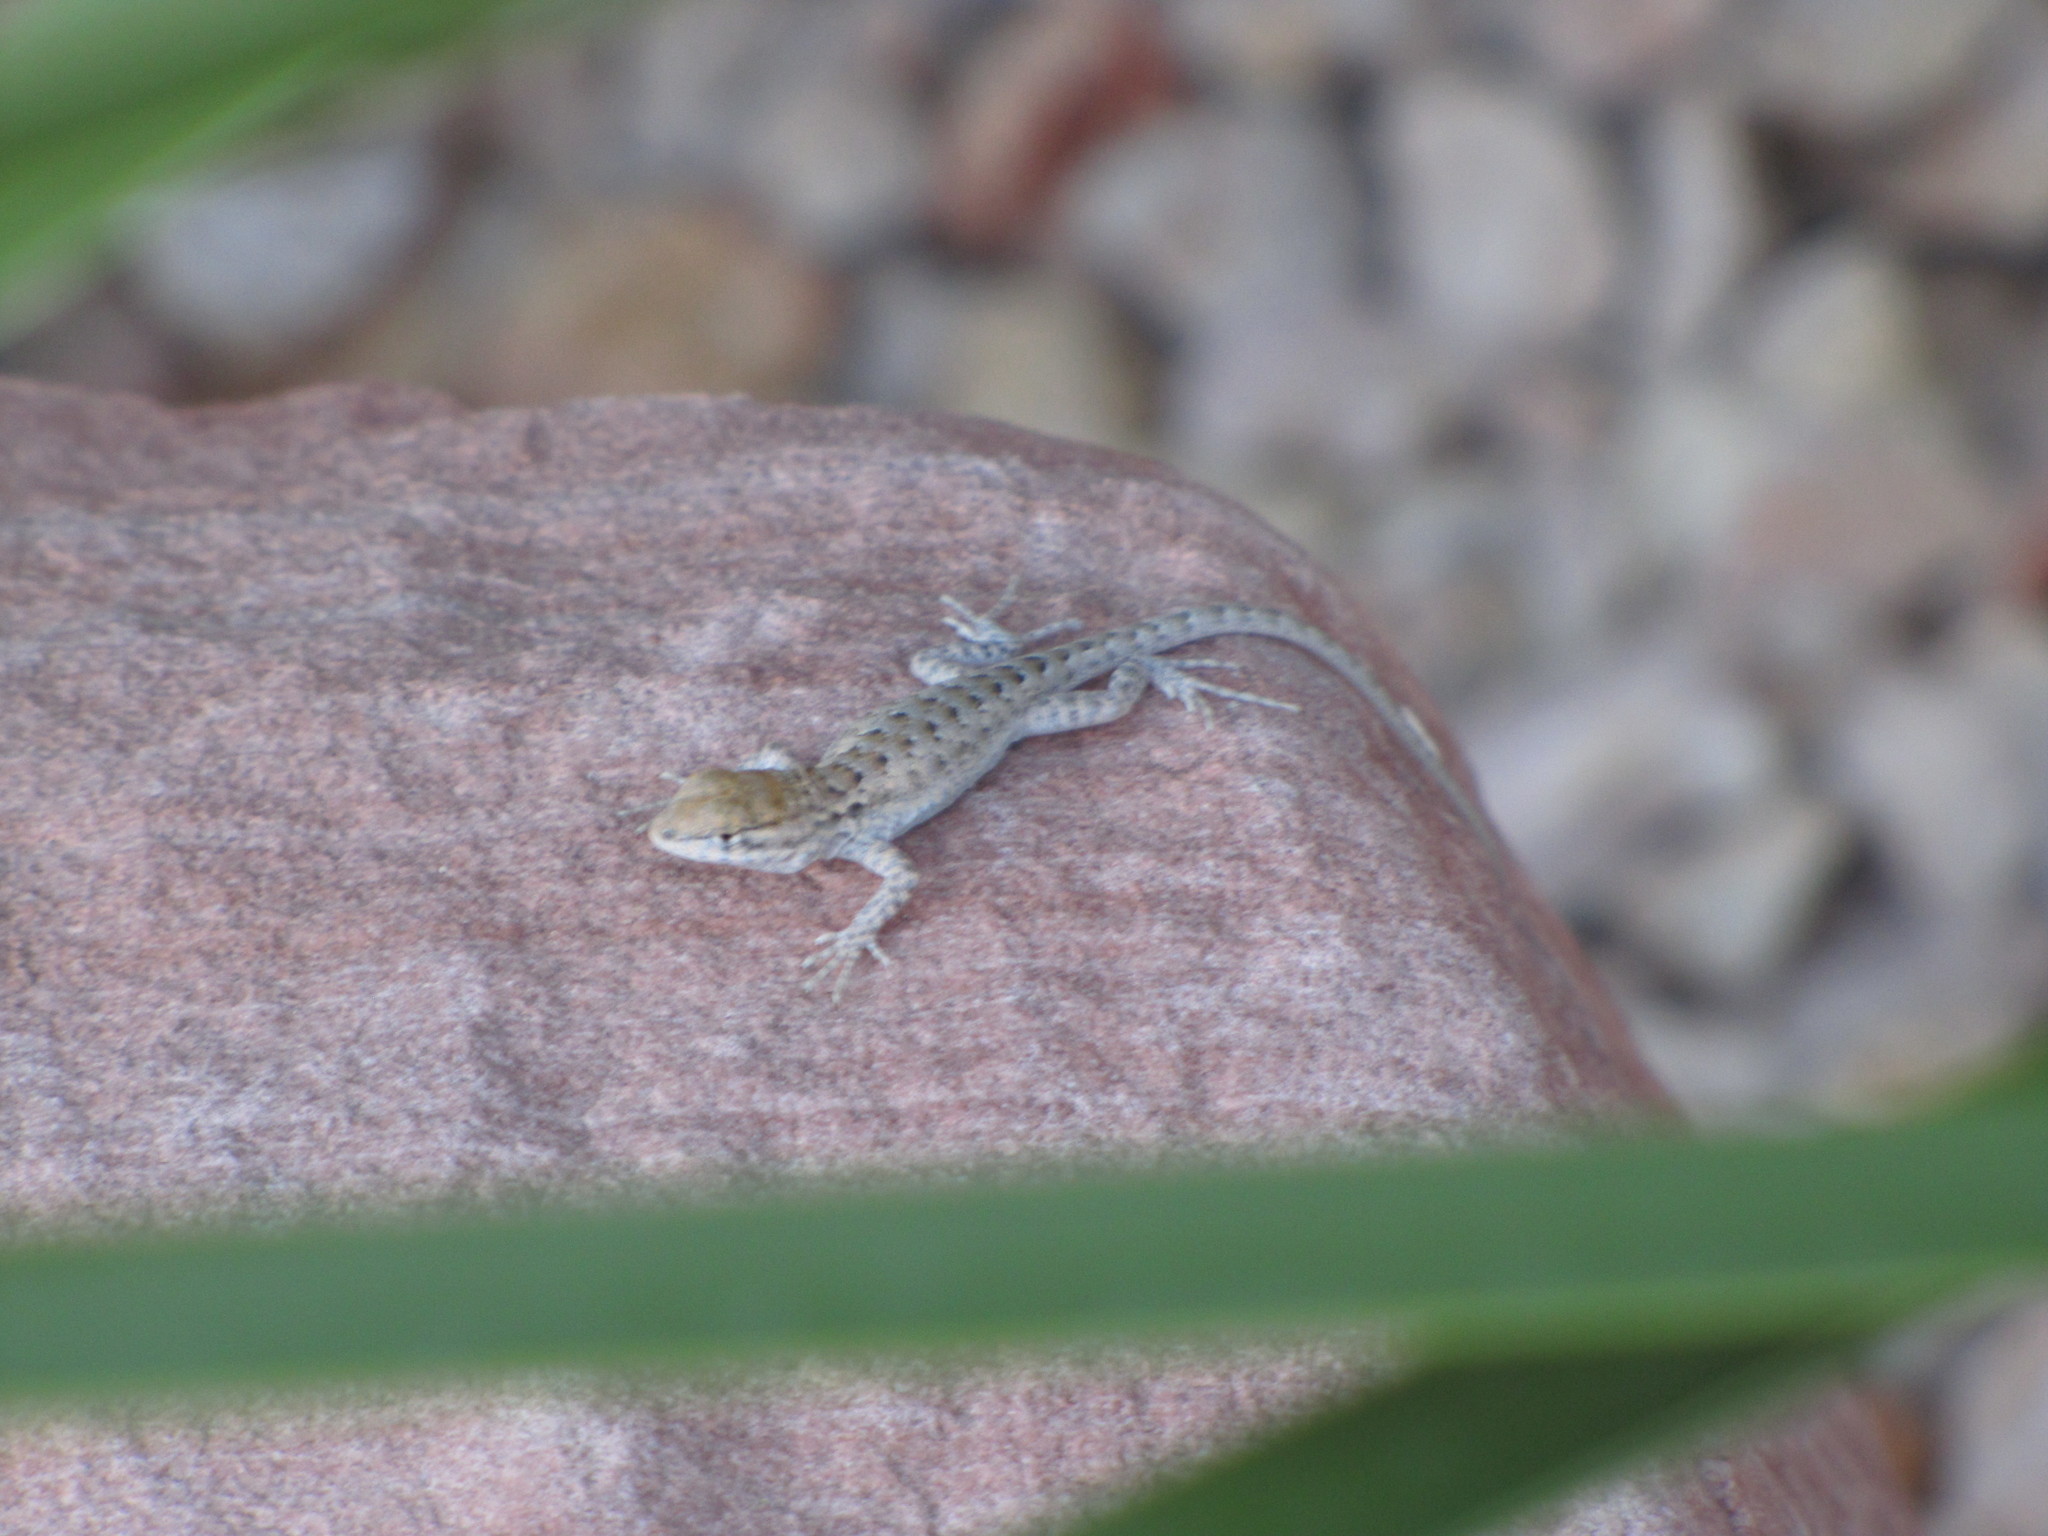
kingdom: Animalia
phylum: Chordata
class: Squamata
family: Phrynosomatidae
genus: Uta
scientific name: Uta stansburiana
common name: Side-blotched lizard
